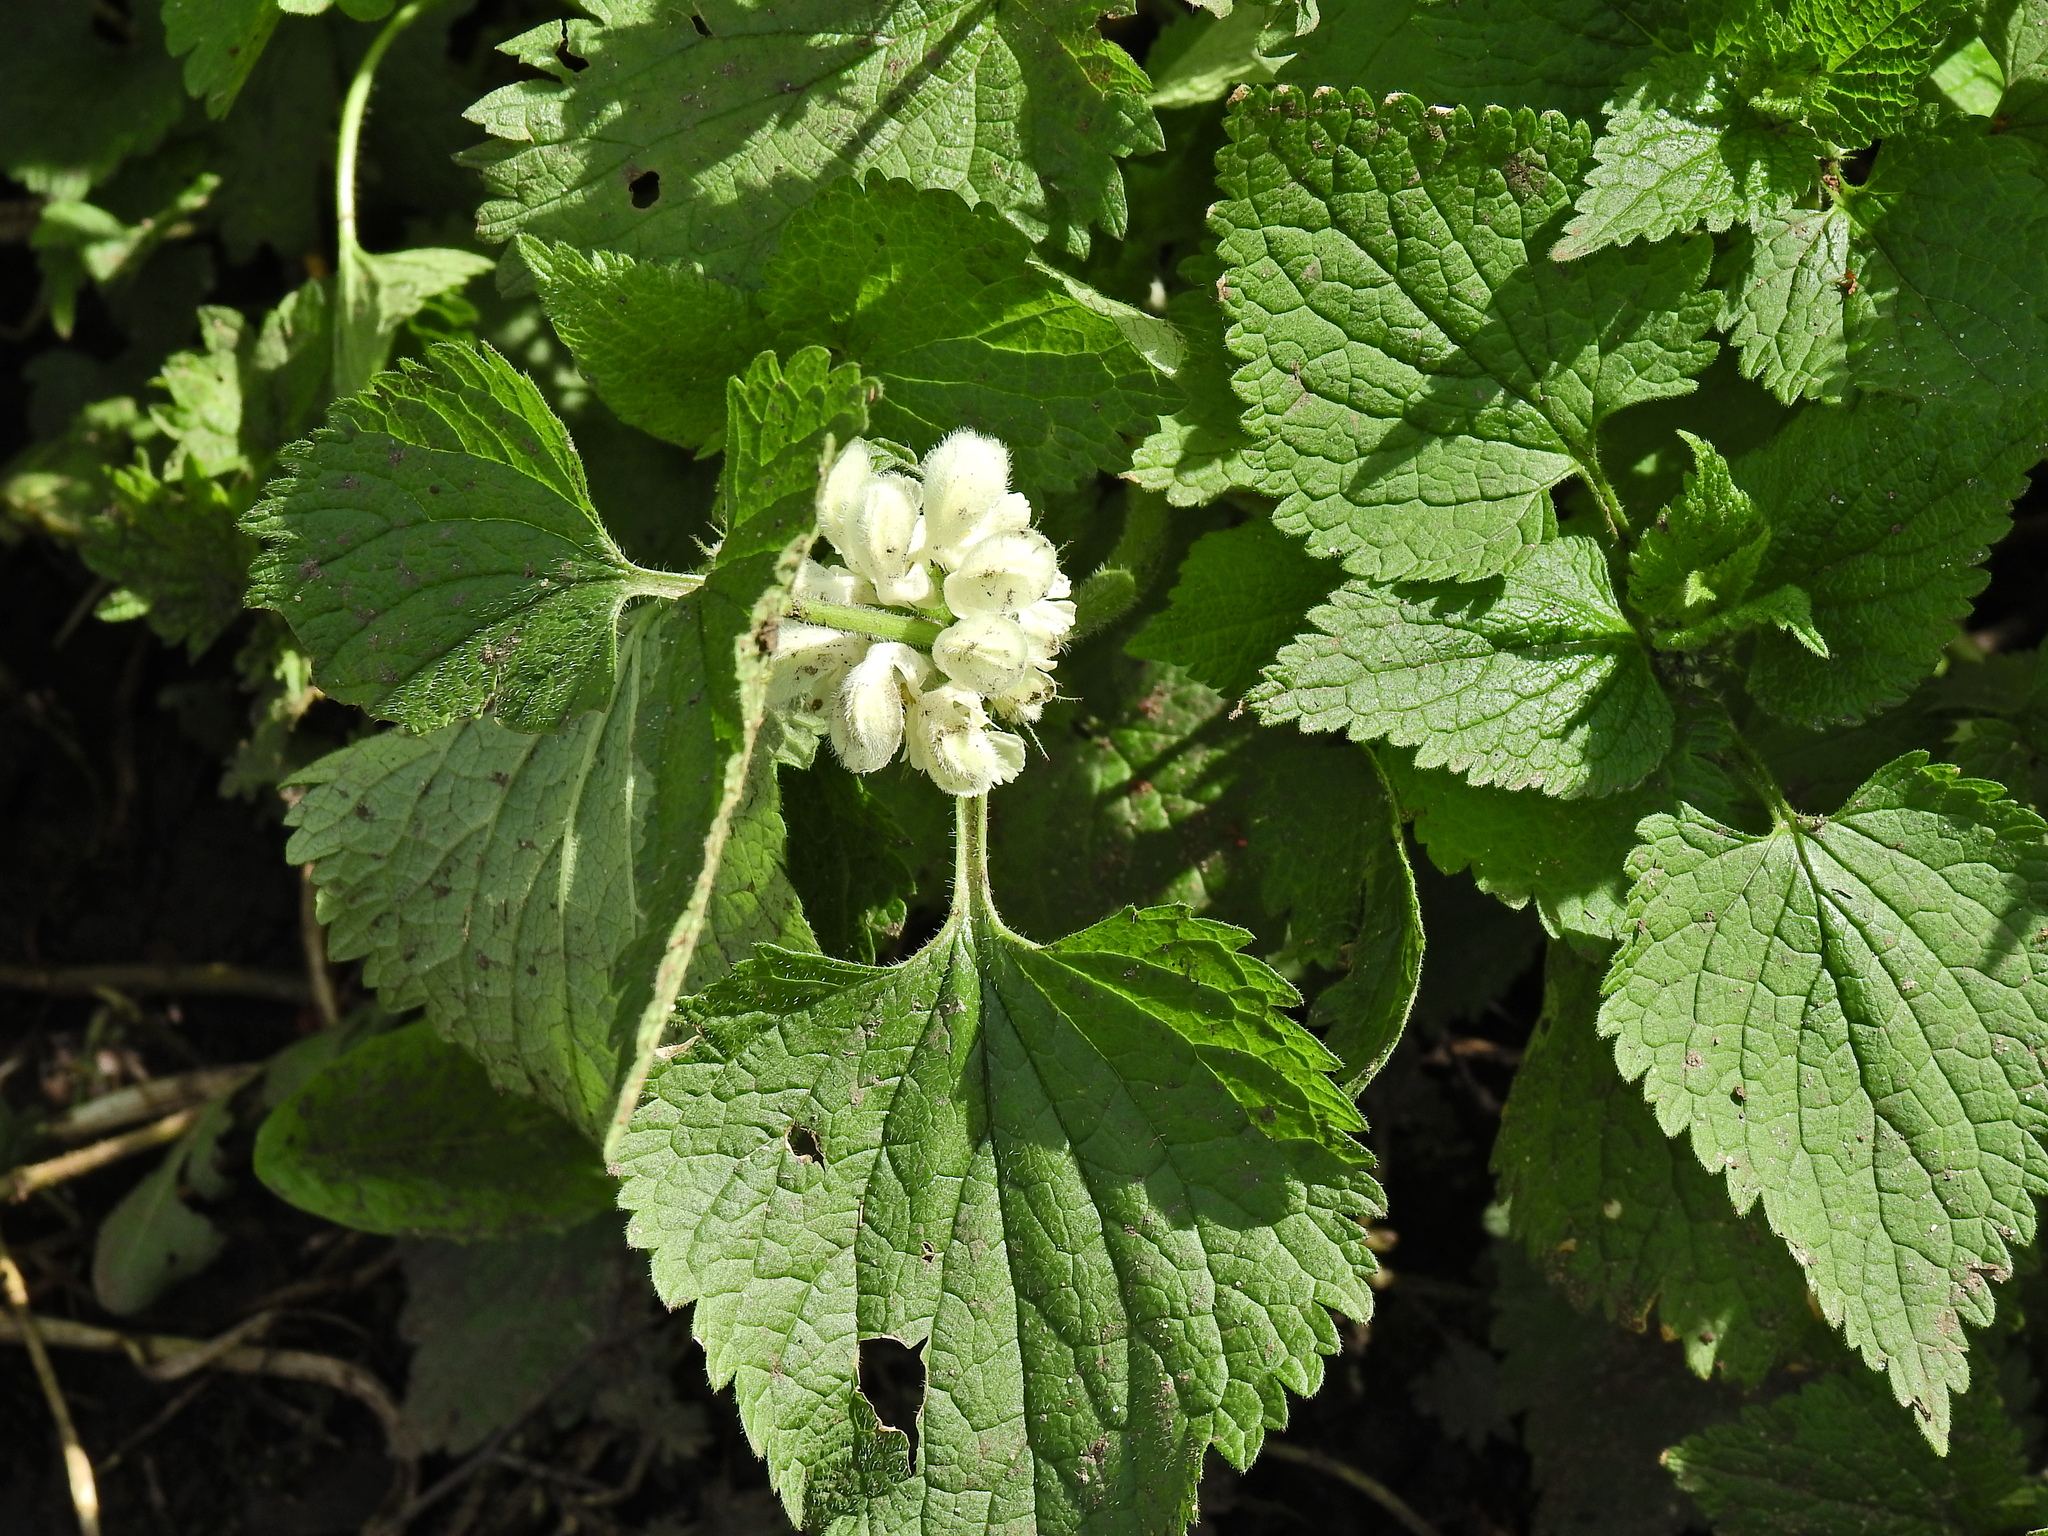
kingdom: Plantae
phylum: Tracheophyta
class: Magnoliopsida
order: Lamiales
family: Lamiaceae
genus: Lamium
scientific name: Lamium album
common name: White dead-nettle
